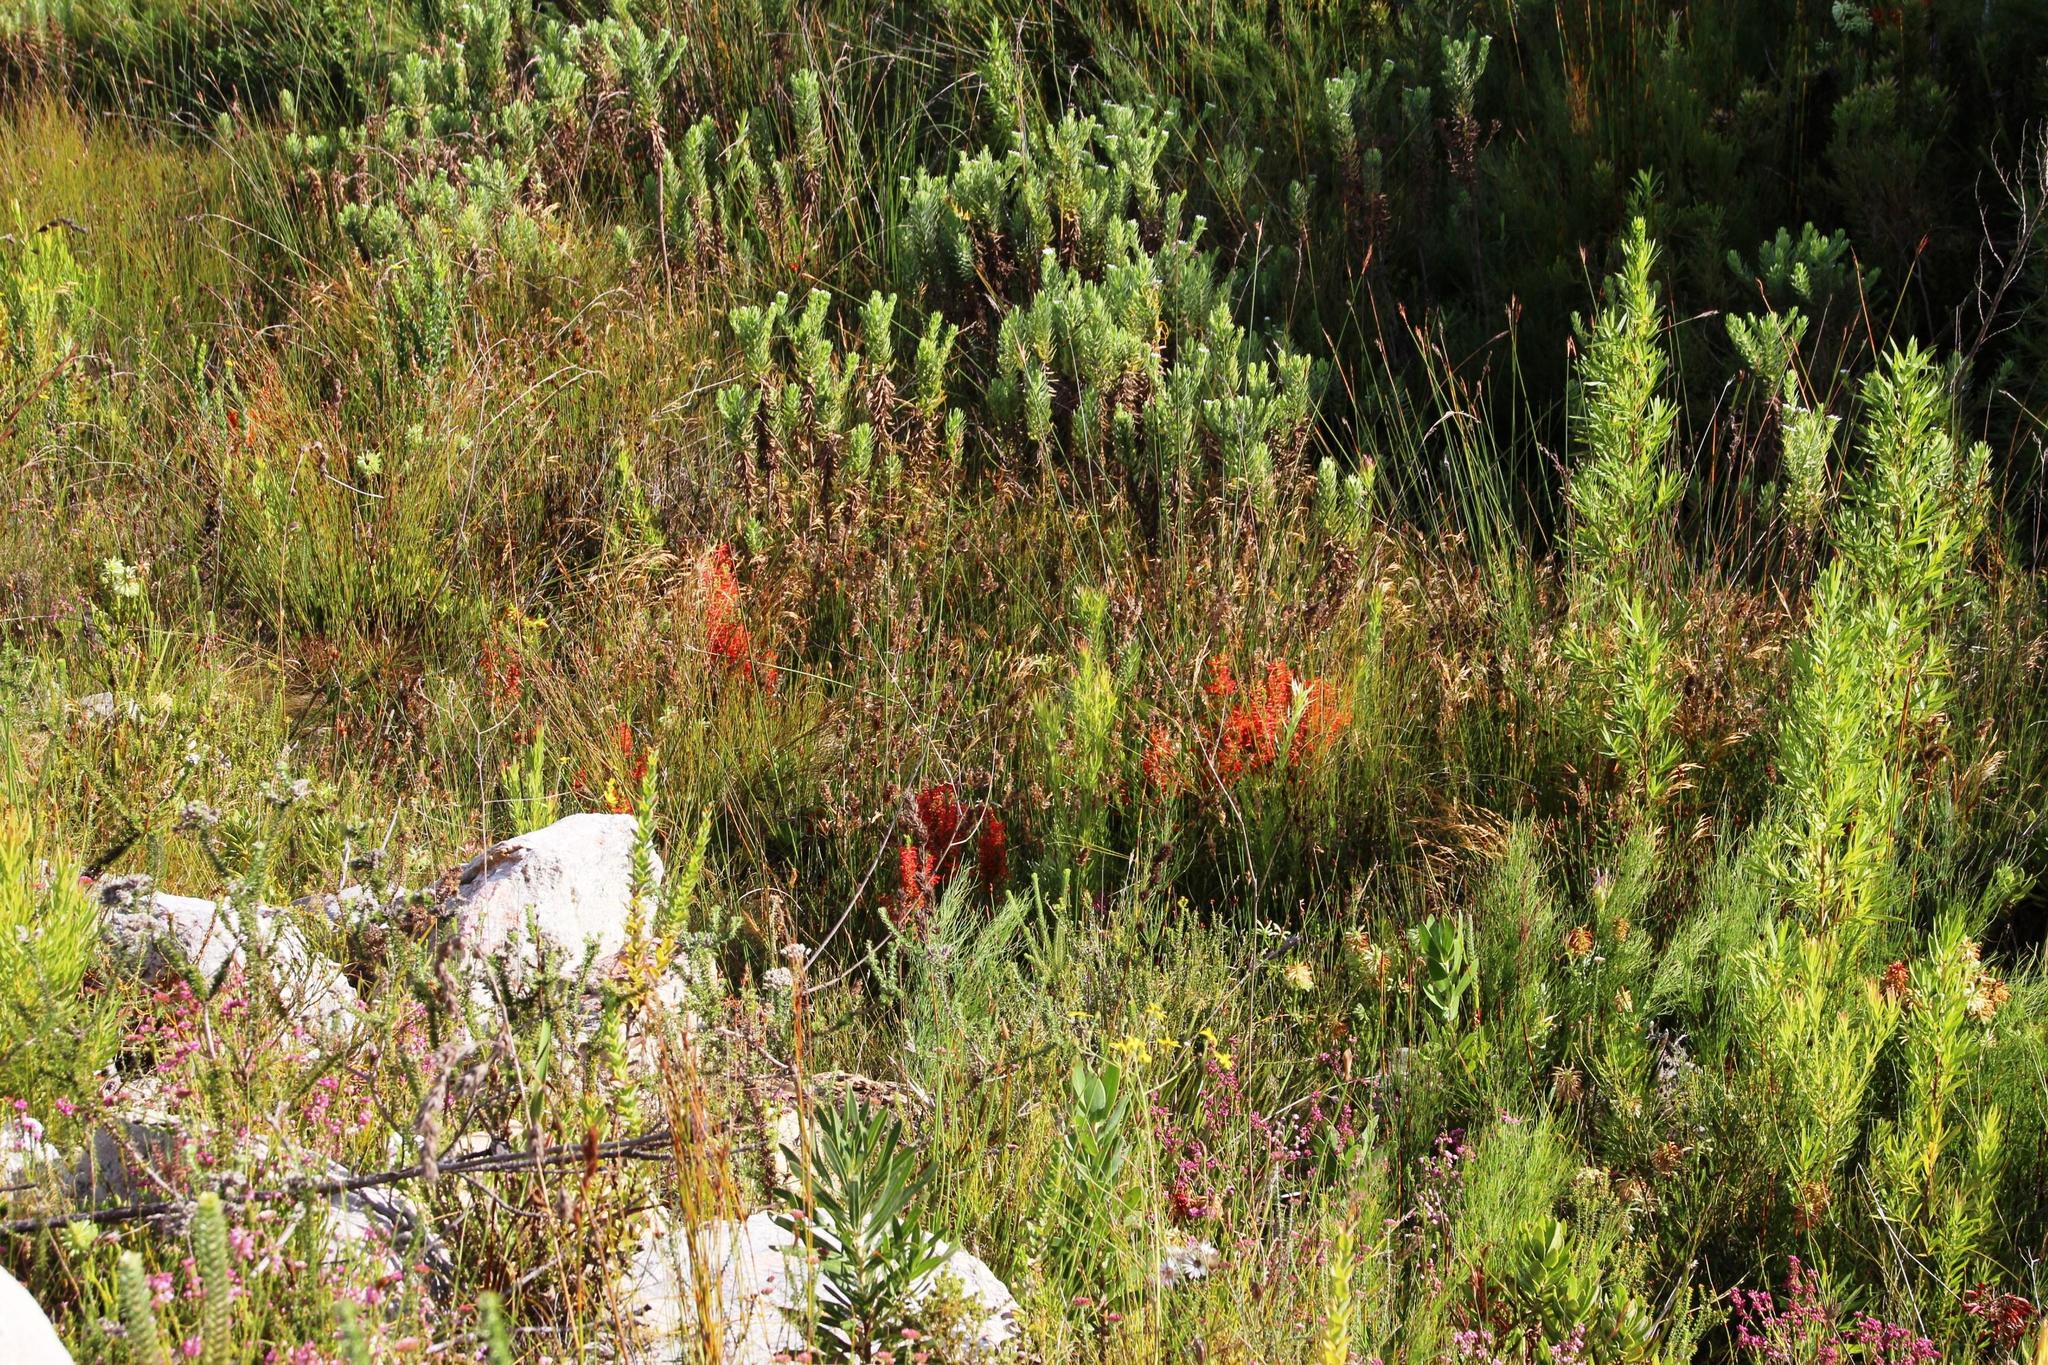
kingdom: Plantae
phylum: Tracheophyta
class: Magnoliopsida
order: Ericales
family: Ericaceae
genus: Erica
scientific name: Erica pillansii
